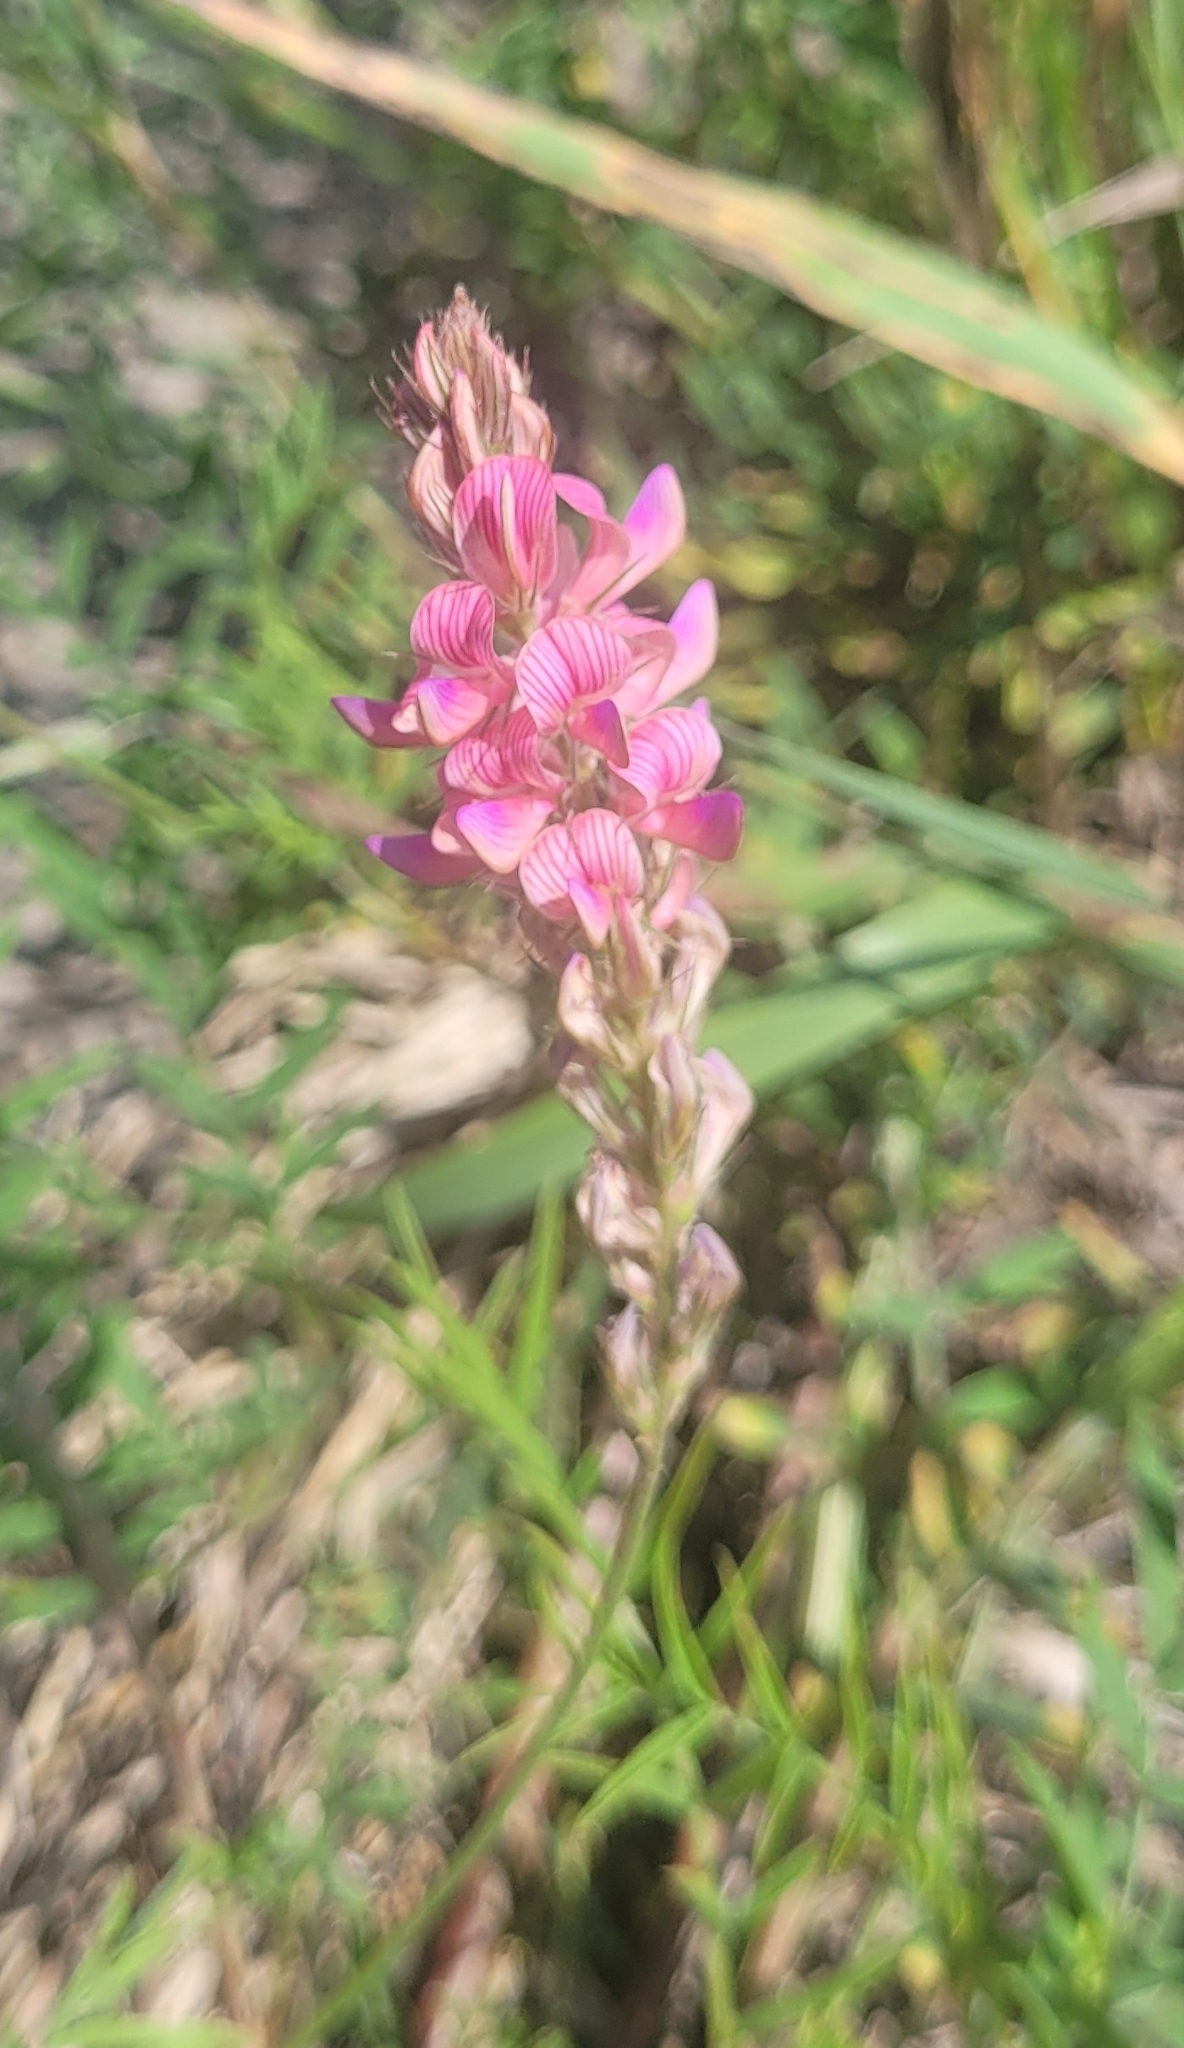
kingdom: Plantae
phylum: Tracheophyta
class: Magnoliopsida
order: Fabales
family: Fabaceae
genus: Onobrychis
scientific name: Onobrychis arenaria
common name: Sand esparcet
